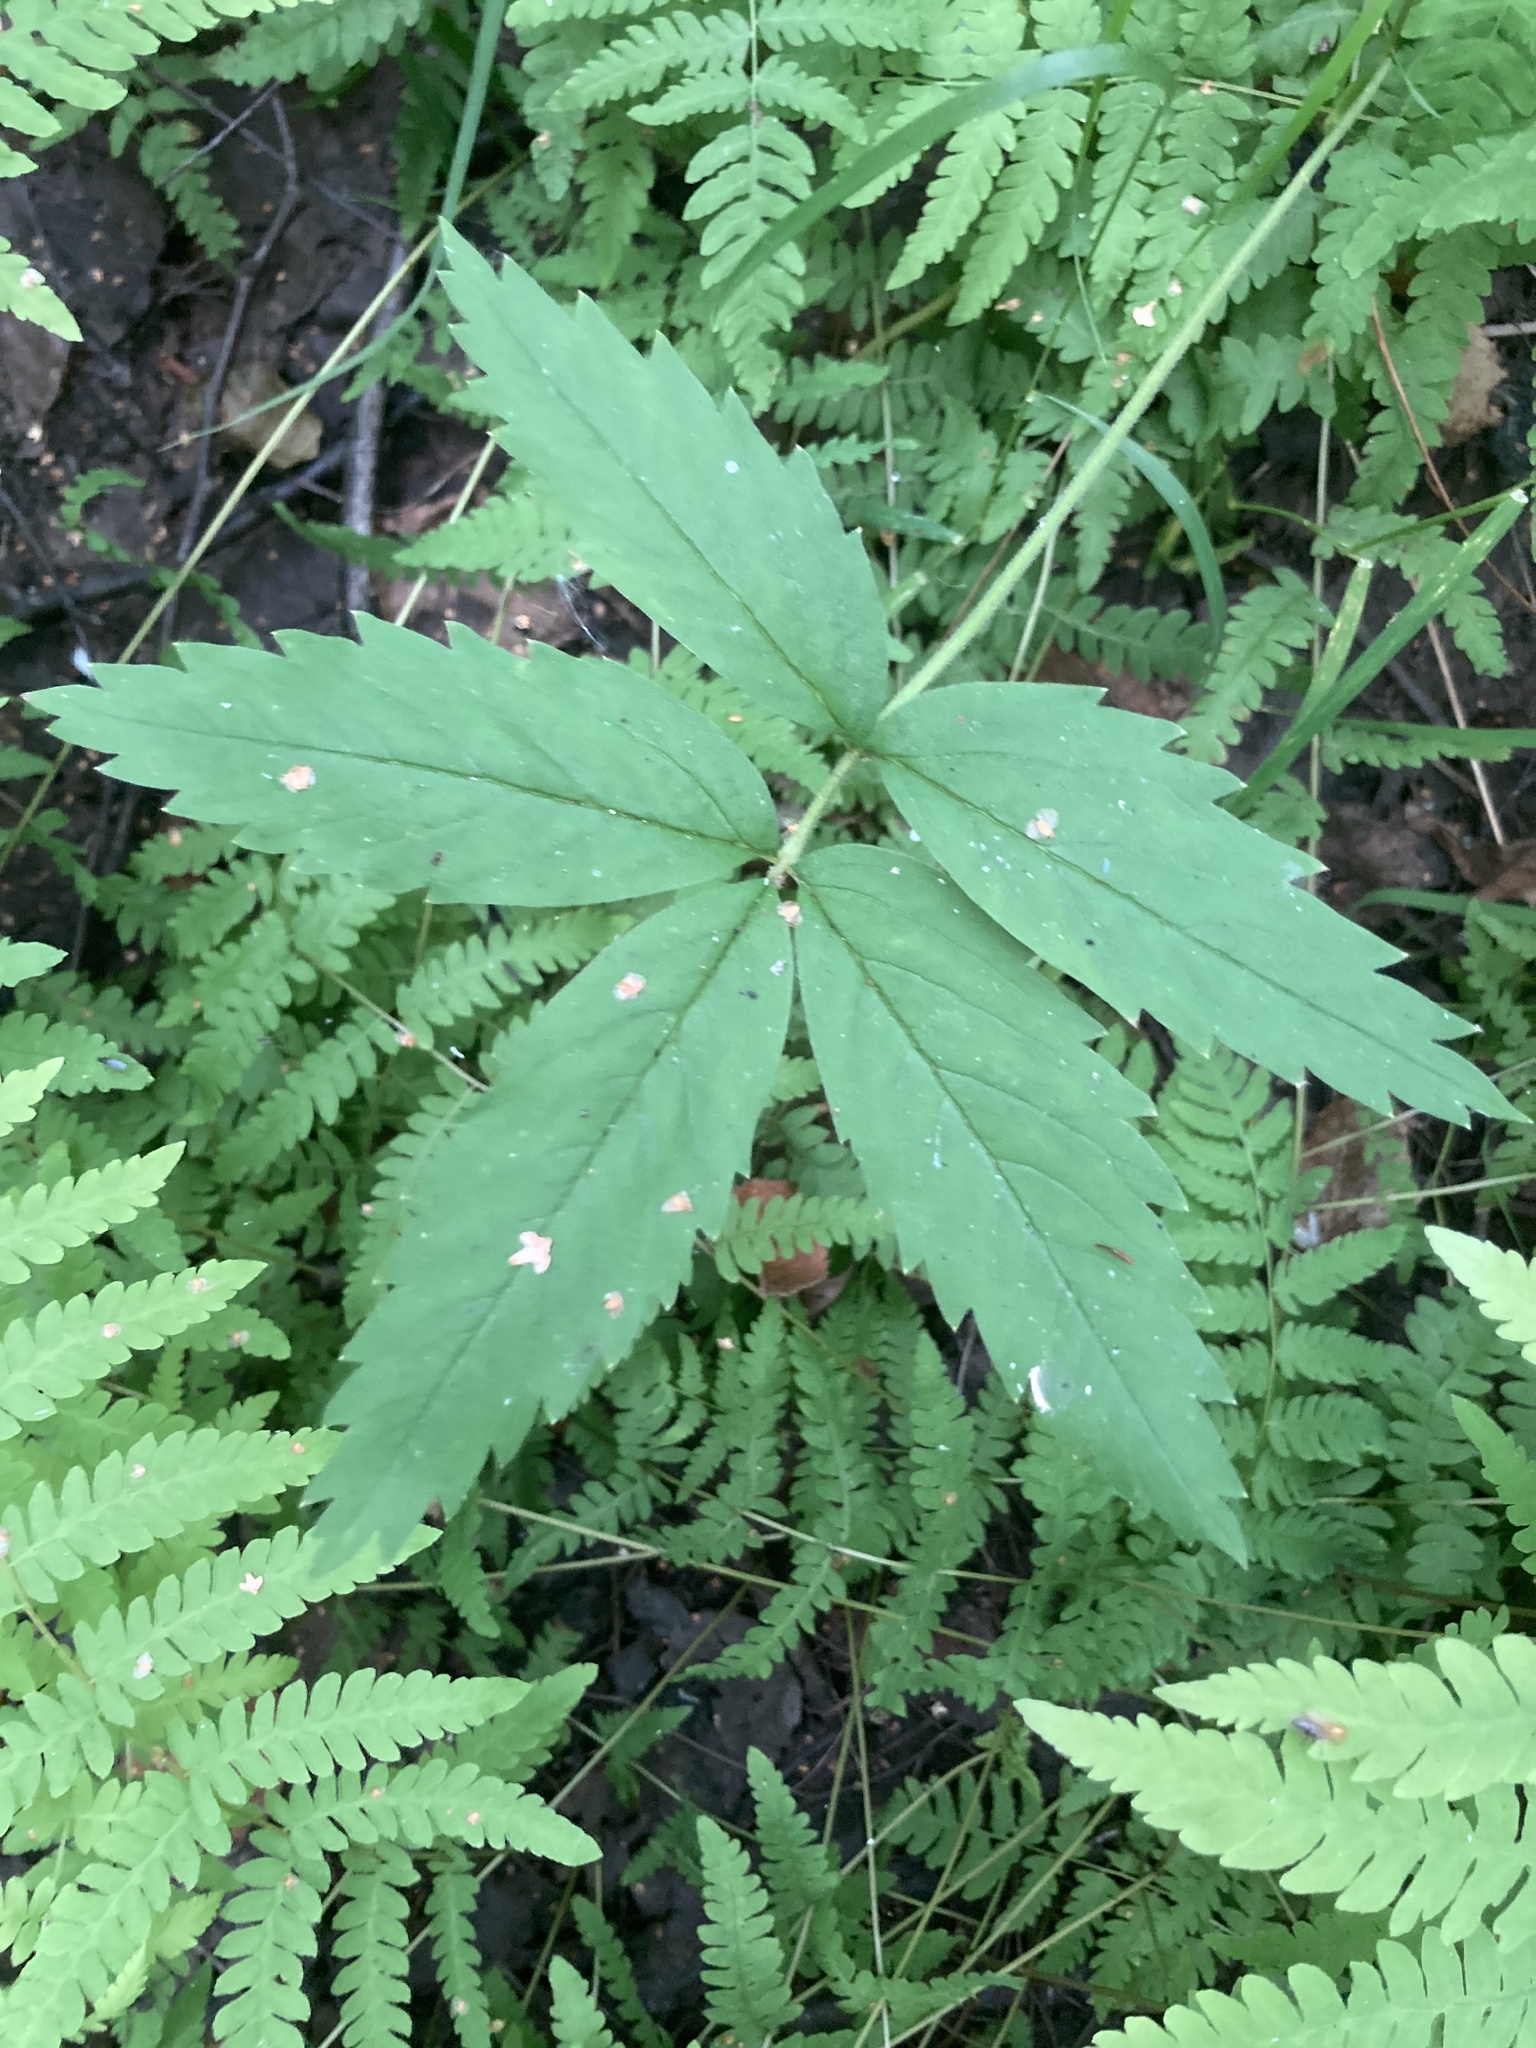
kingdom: Plantae
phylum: Tracheophyta
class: Magnoliopsida
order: Rosales
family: Rosaceae
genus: Comarum
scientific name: Comarum palustre
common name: Marsh cinquefoil
